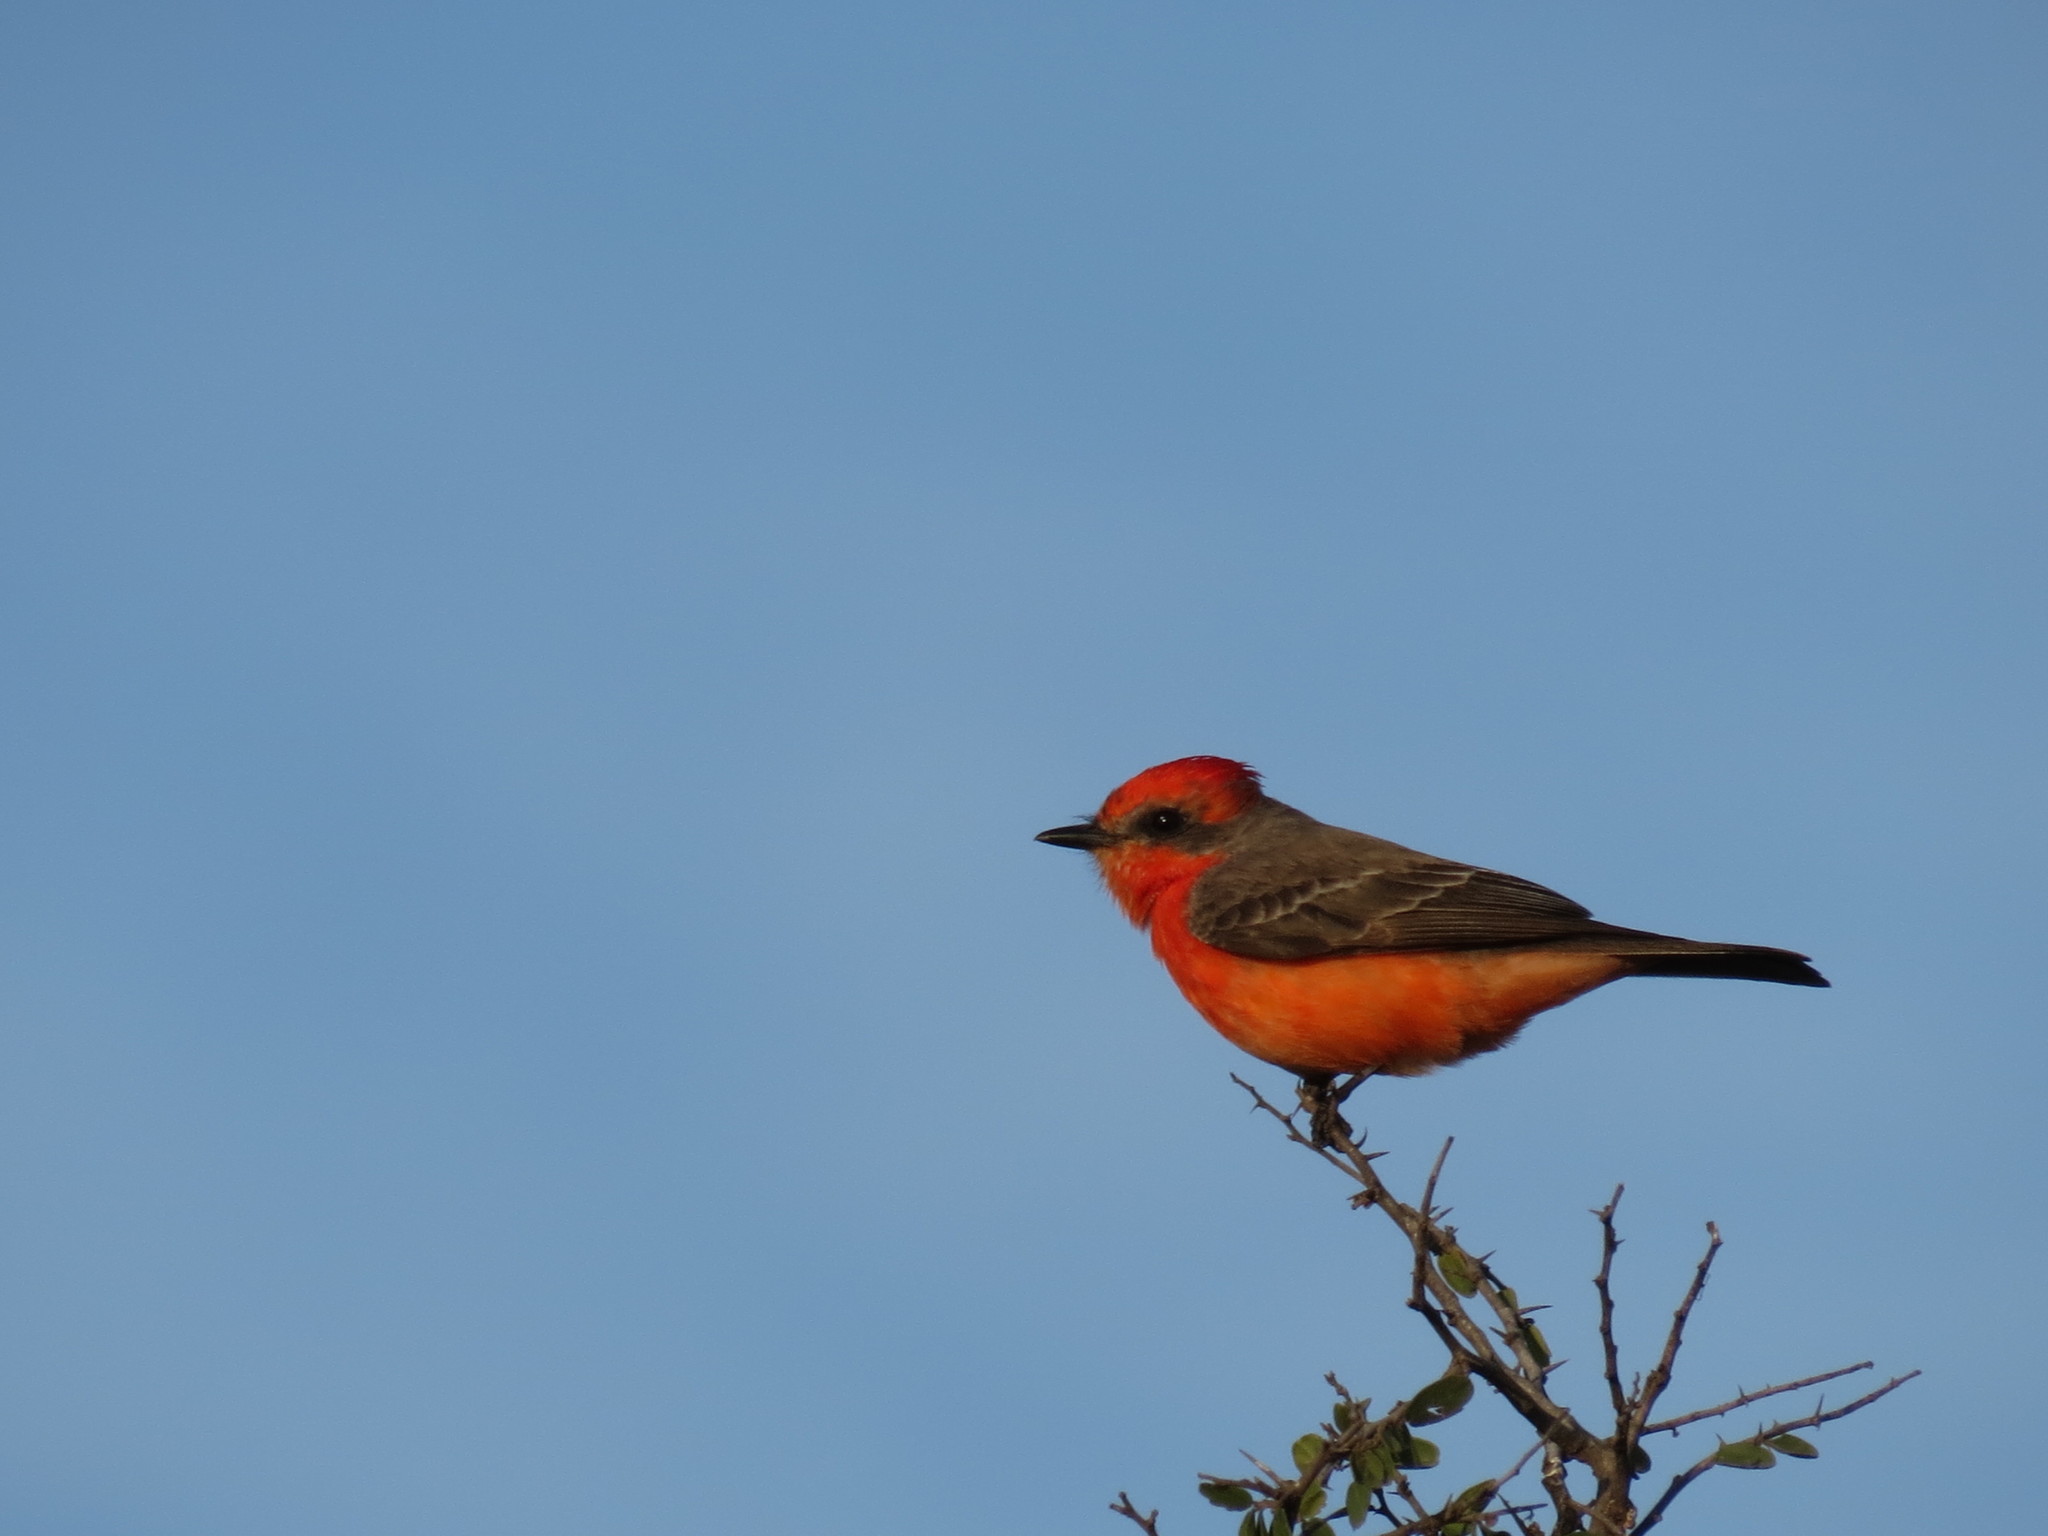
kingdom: Animalia
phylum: Chordata
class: Aves
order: Passeriformes
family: Tyrannidae
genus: Pyrocephalus
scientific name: Pyrocephalus rubinus
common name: Vermilion flycatcher
